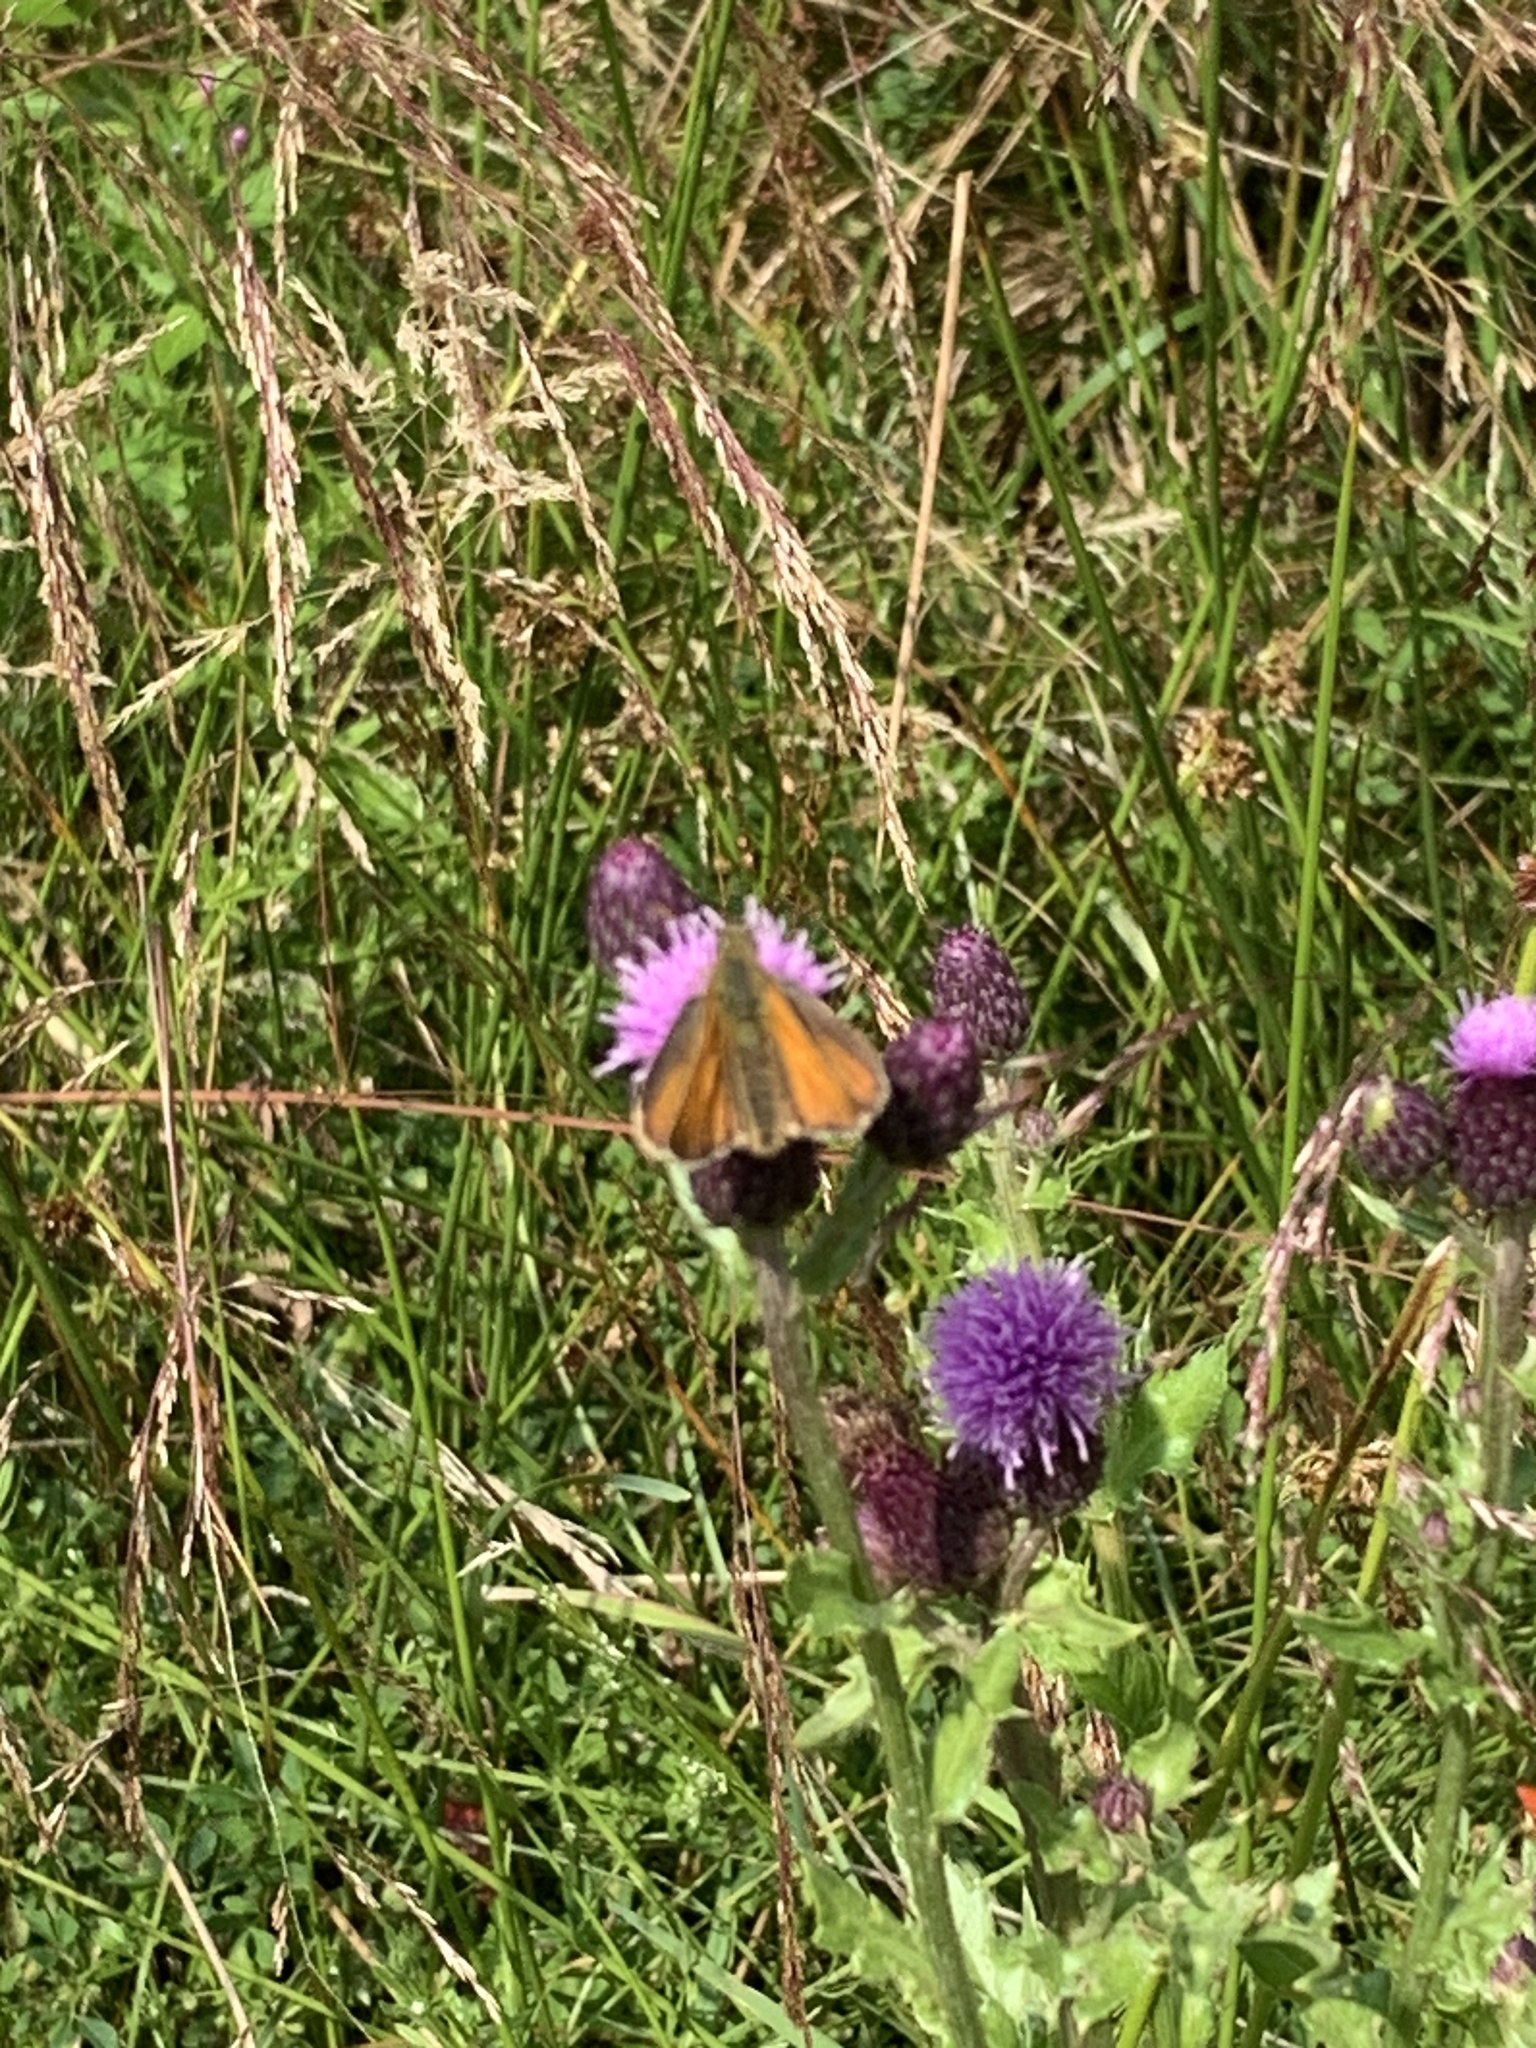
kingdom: Animalia
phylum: Arthropoda
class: Insecta
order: Lepidoptera
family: Hesperiidae
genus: Thymelicus
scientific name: Thymelicus sylvestris
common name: Small skipper
